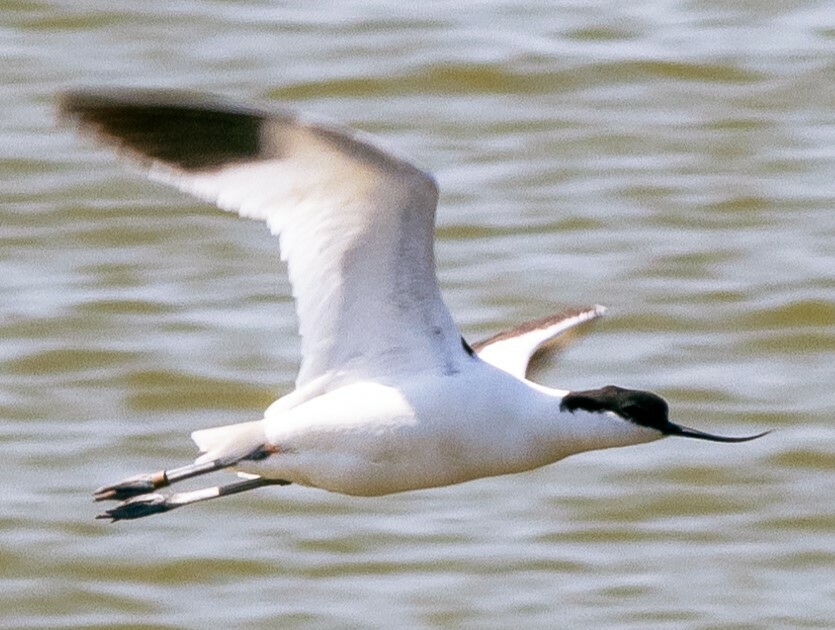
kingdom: Animalia
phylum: Chordata
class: Aves
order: Charadriiformes
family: Recurvirostridae
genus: Recurvirostra
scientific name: Recurvirostra avosetta
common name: Pied avocet
